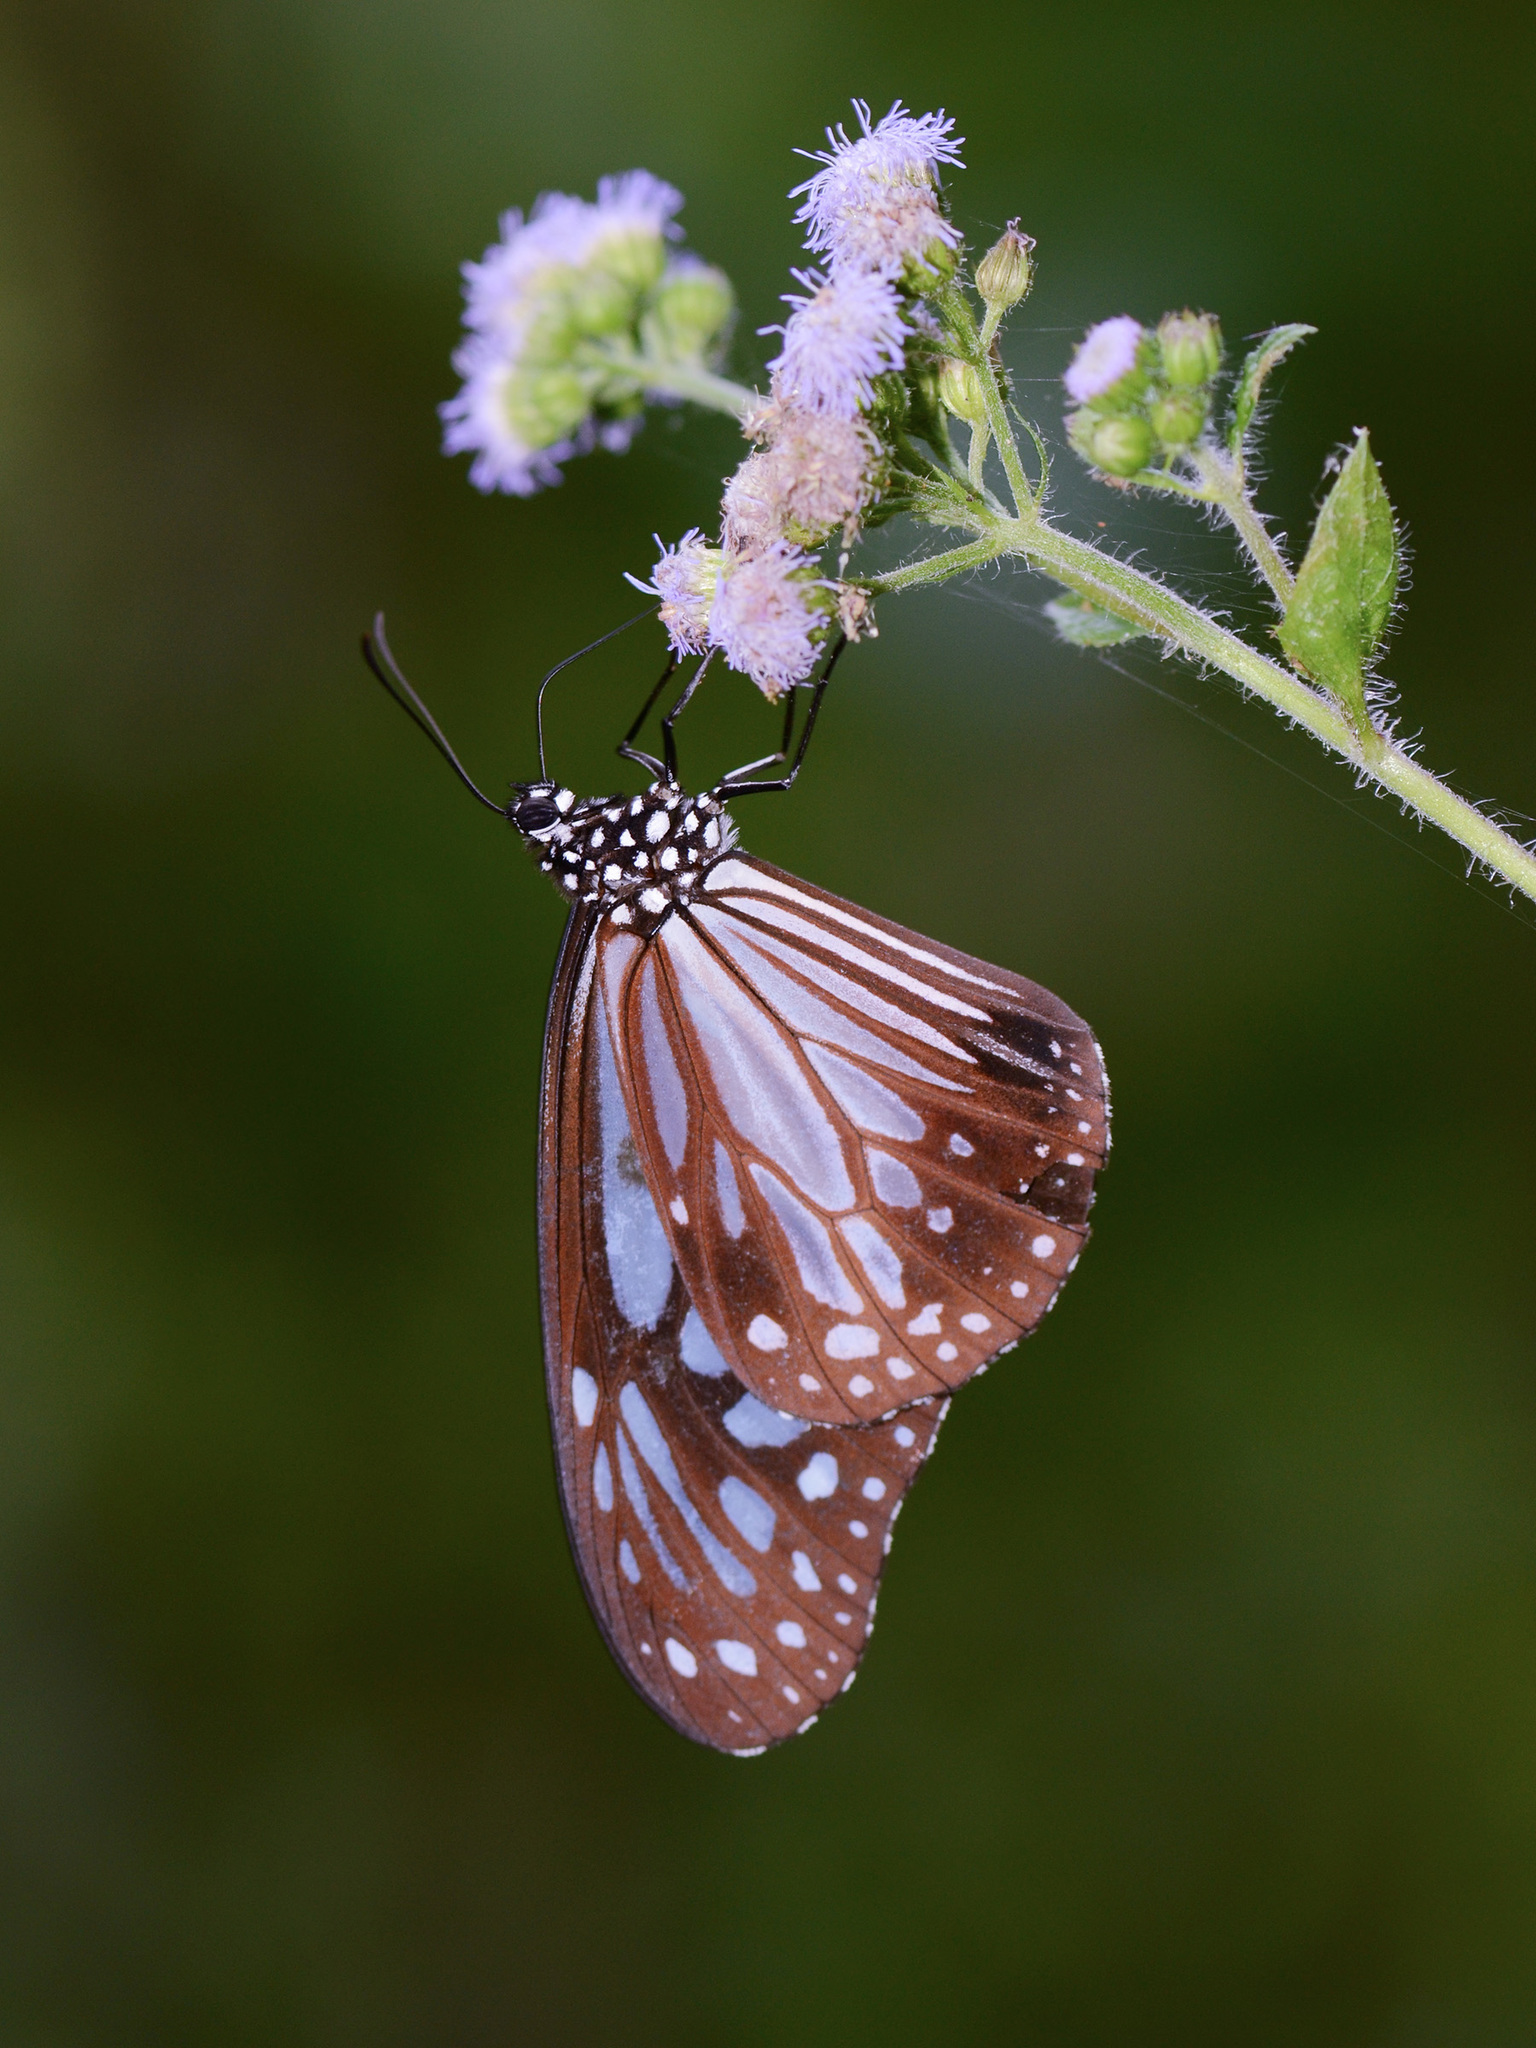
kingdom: Animalia
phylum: Arthropoda
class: Insecta
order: Lepidoptera
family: Nymphalidae
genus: Parantica
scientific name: Parantica melaneus
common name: Chocolate tiger
